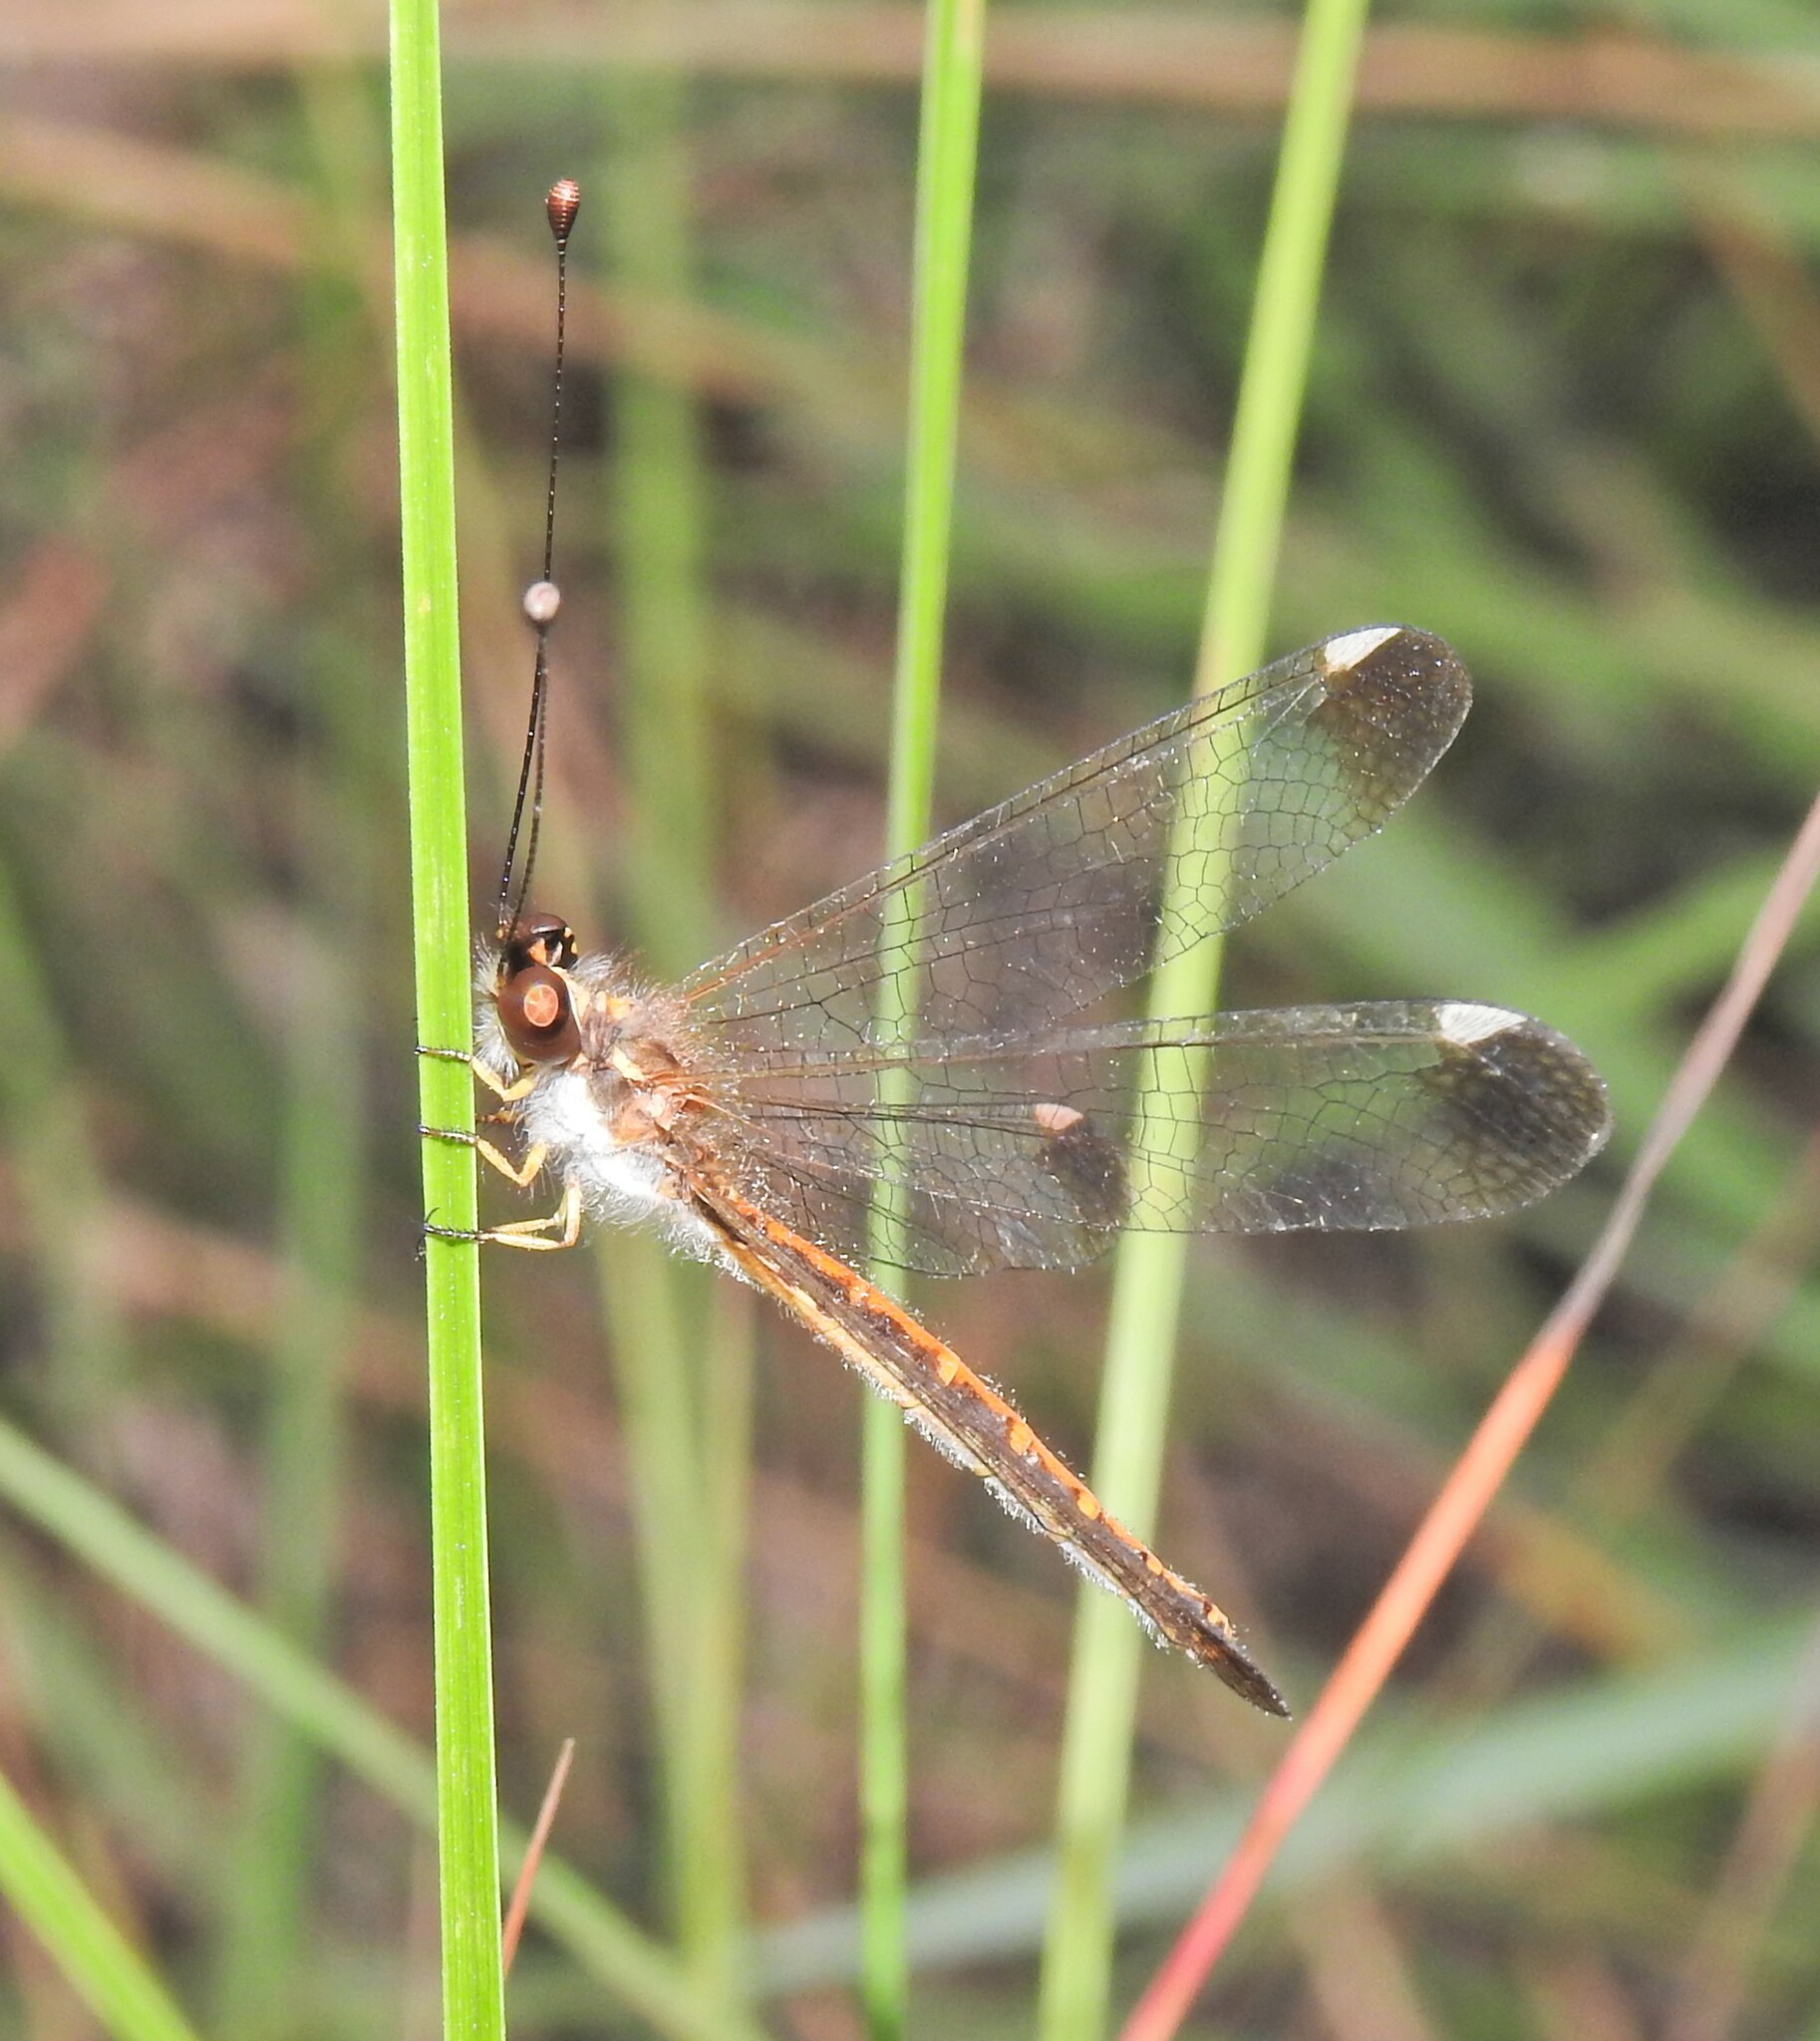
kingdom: Animalia
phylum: Arthropoda
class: Insecta
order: Neuroptera
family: Ascalaphidae
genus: Suhpalacsa
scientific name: Suhpalacsa dietrichiae
